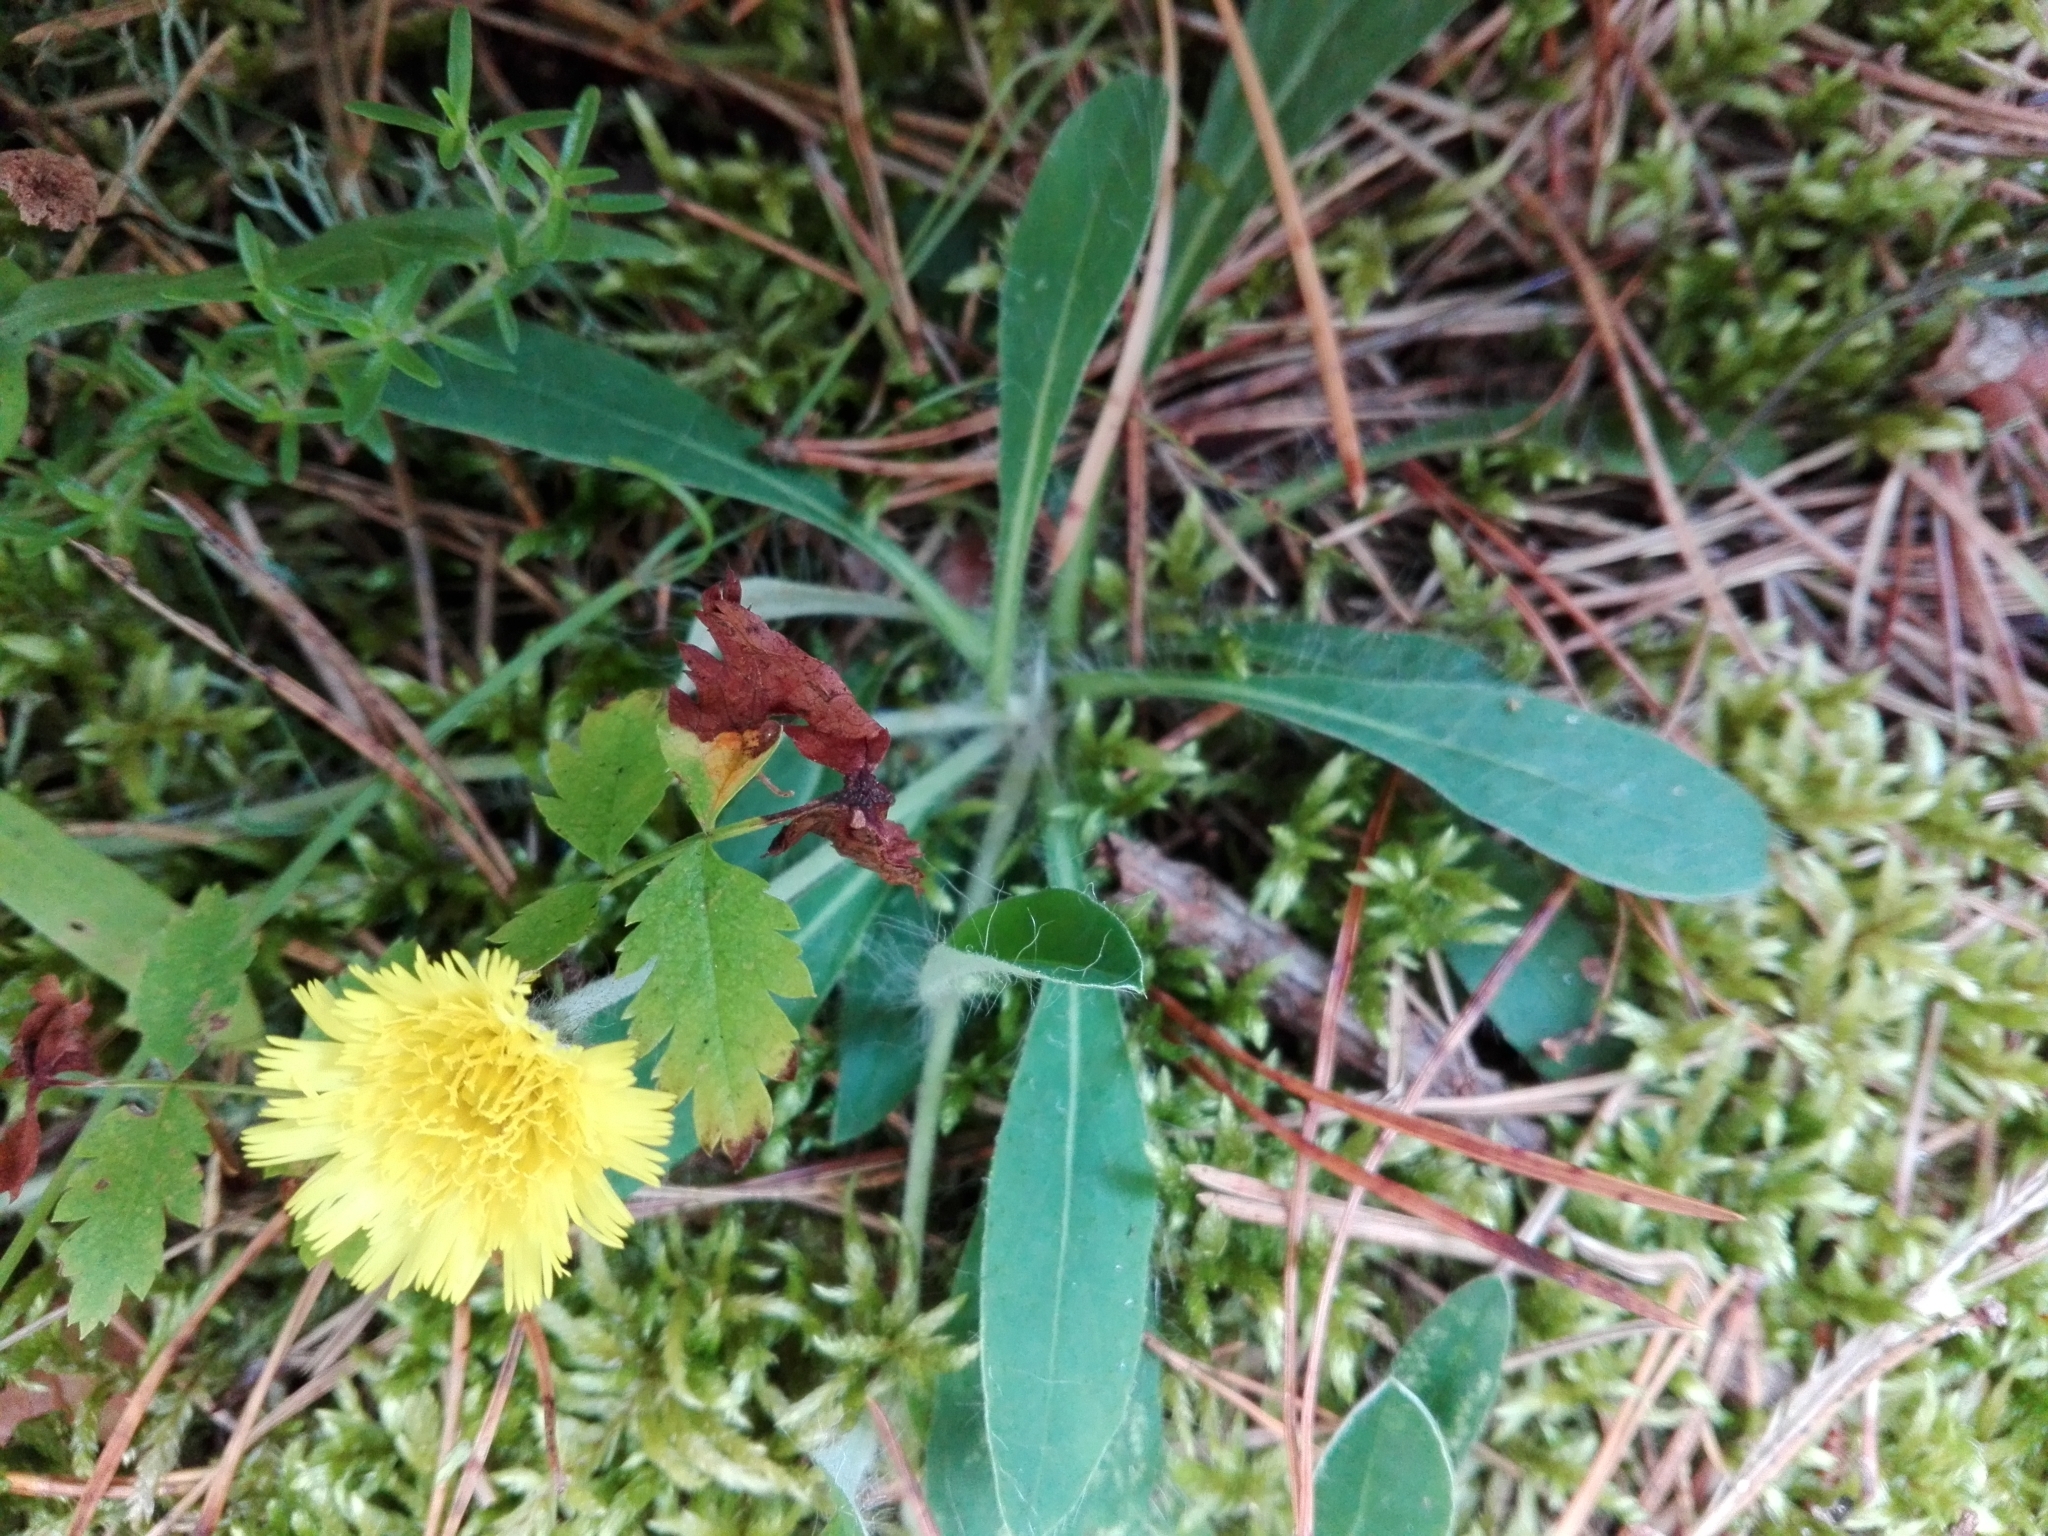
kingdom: Plantae
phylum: Tracheophyta
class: Magnoliopsida
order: Asterales
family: Asteraceae
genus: Pilosella
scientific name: Pilosella officinarum
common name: Mouse-ear hawkweed
